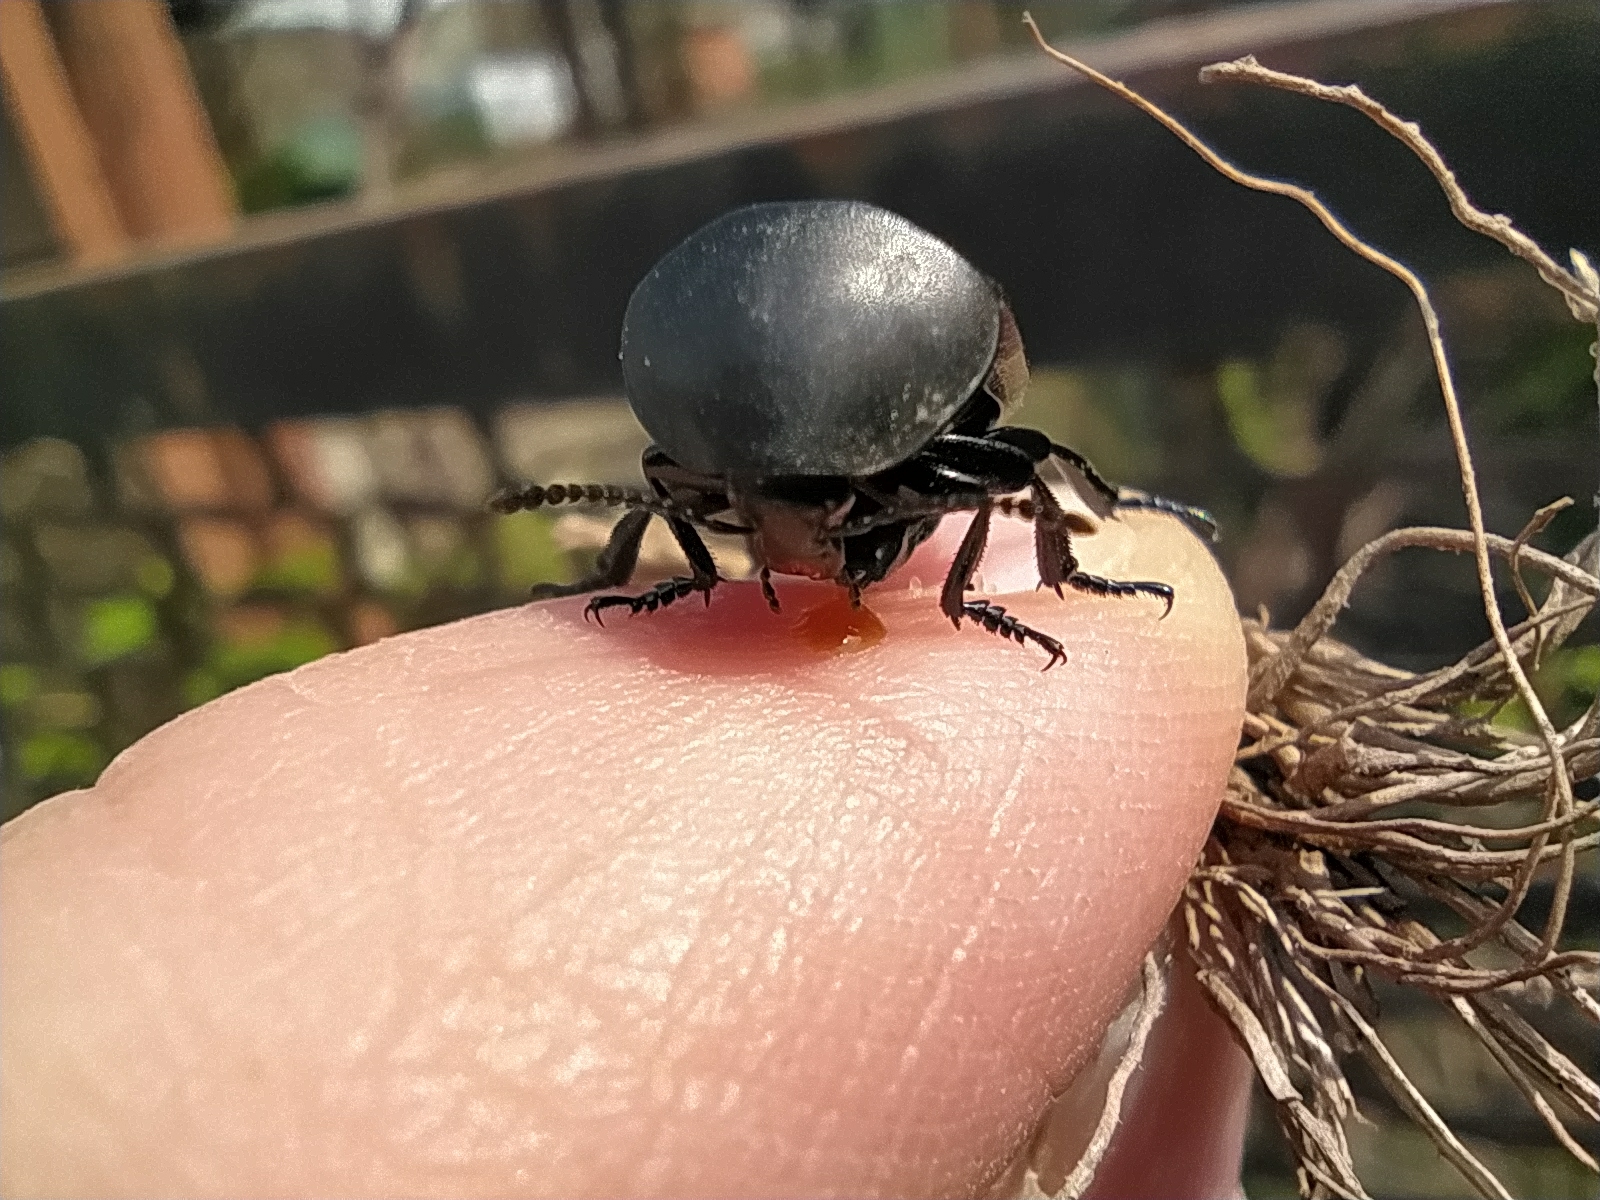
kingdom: Animalia
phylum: Arthropoda
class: Insecta
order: Coleoptera
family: Staphylinidae
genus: Silpha
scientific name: Silpha laevigata
